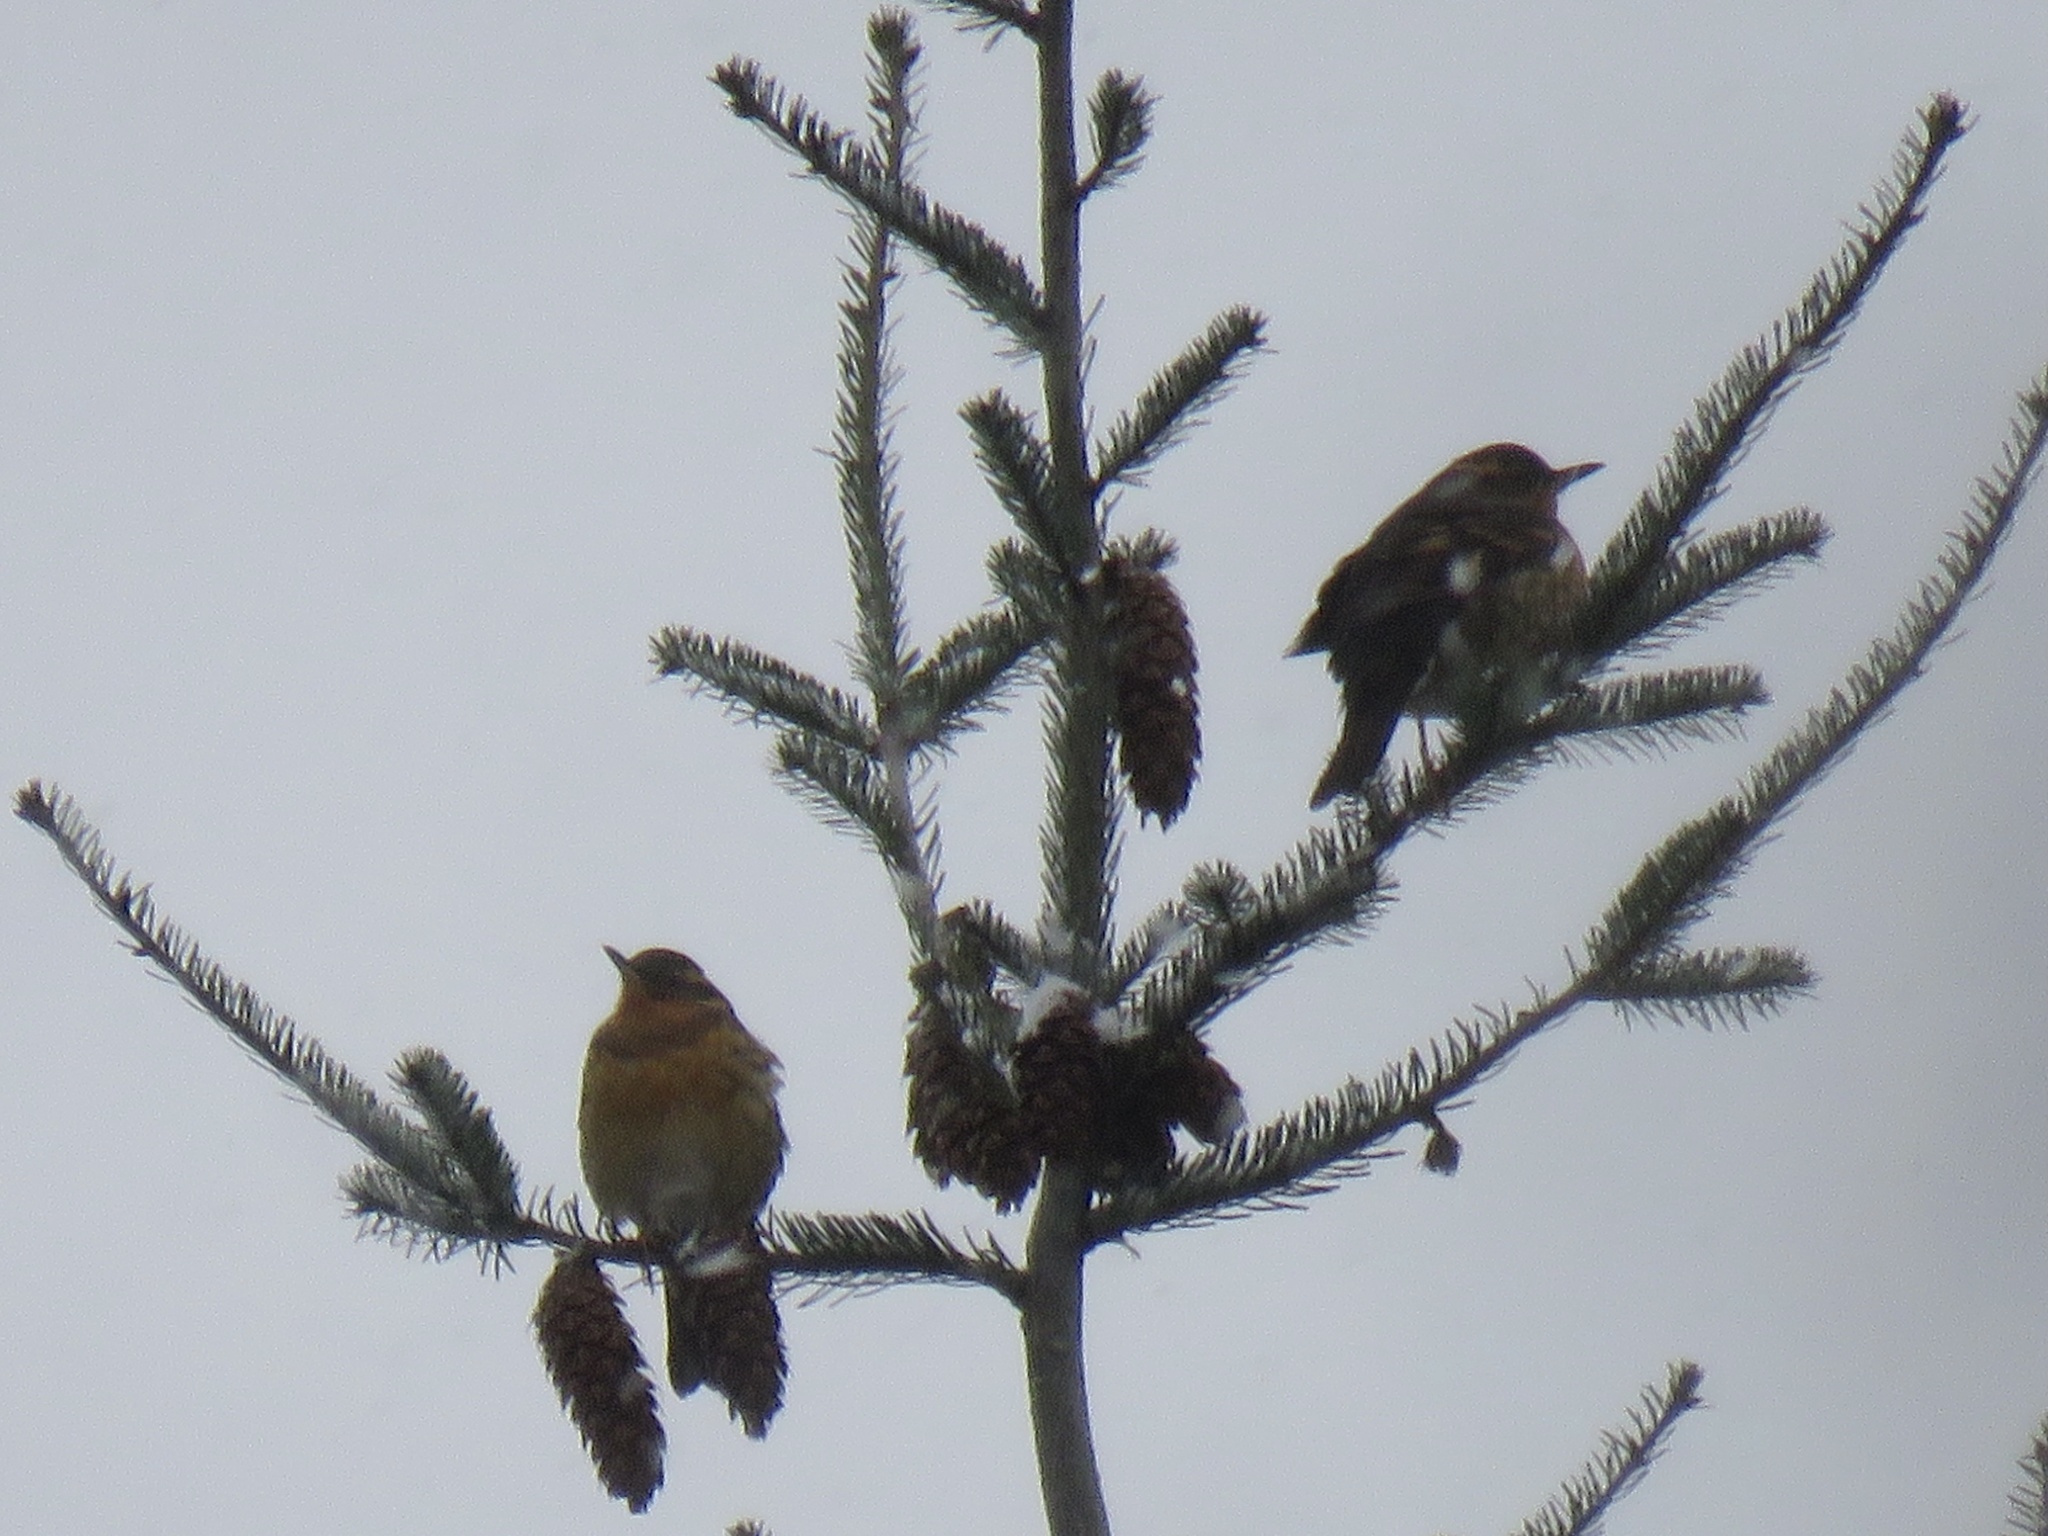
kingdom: Animalia
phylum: Chordata
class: Aves
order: Passeriformes
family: Turdidae
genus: Ixoreus
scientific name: Ixoreus naevius
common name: Varied thrush
